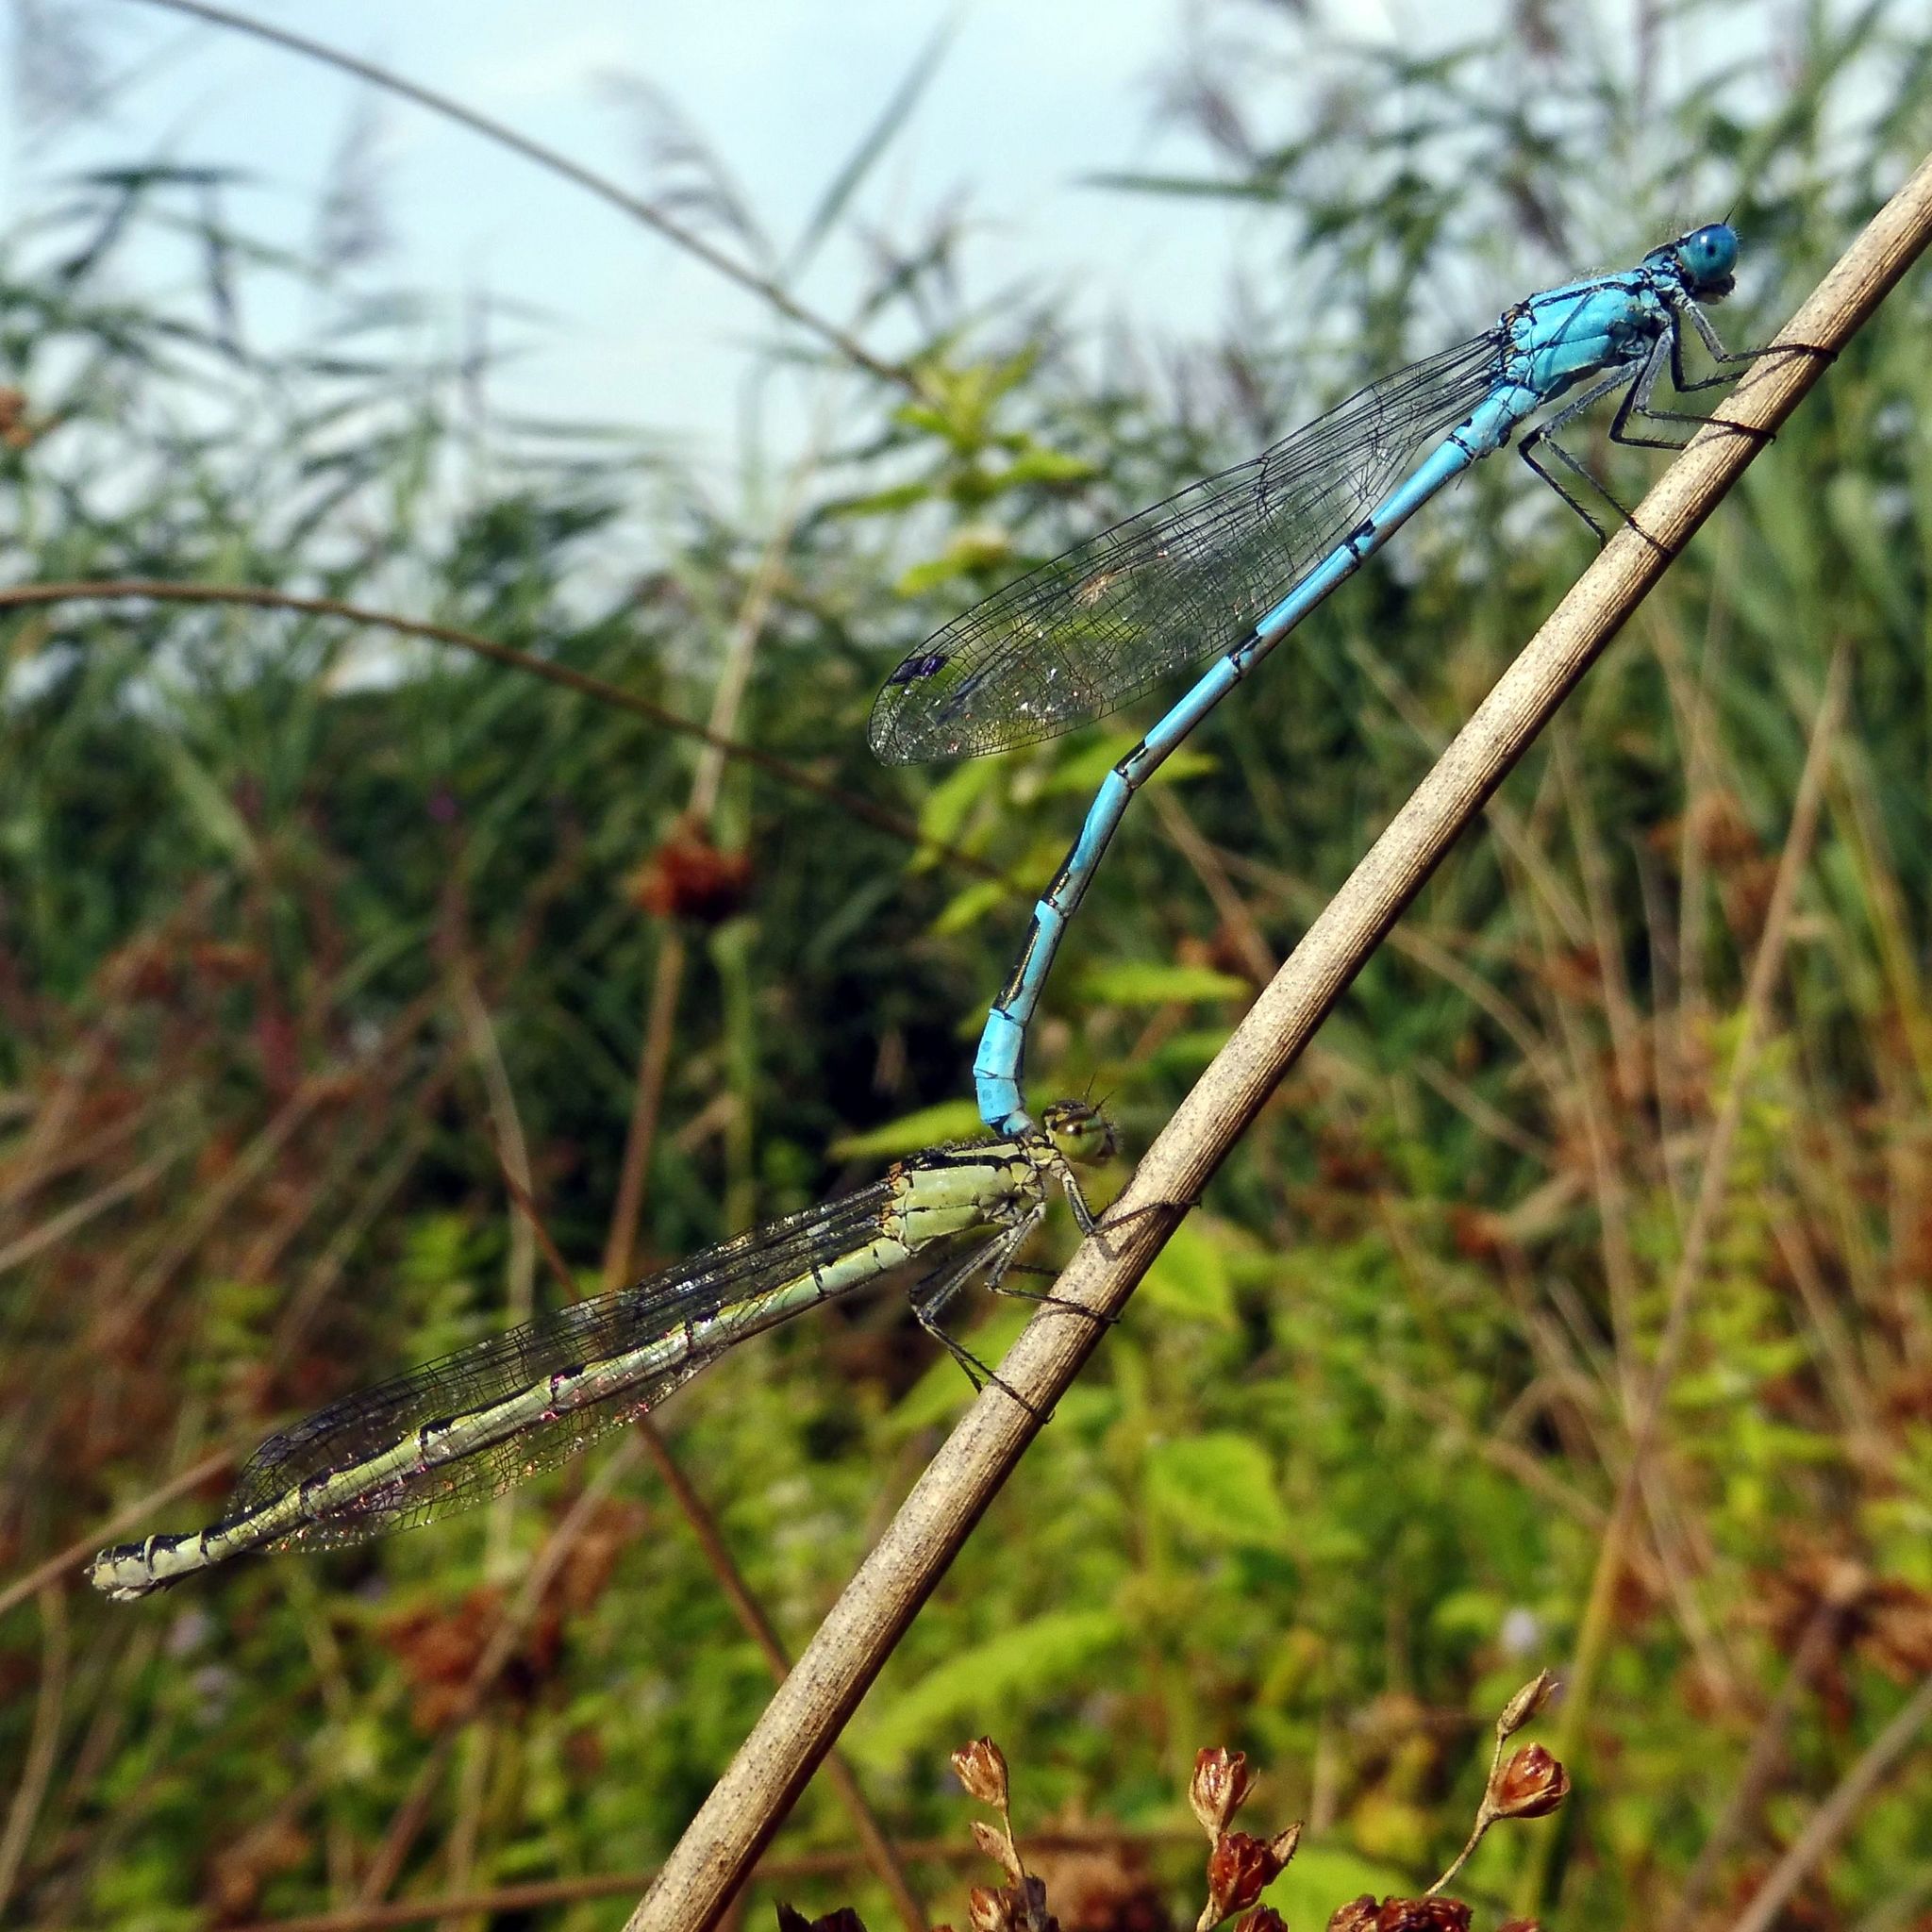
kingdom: Animalia
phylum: Arthropoda
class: Insecta
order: Odonata
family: Coenagrionidae
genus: Enallagma
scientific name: Enallagma cyathigerum
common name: Common blue damselfly
